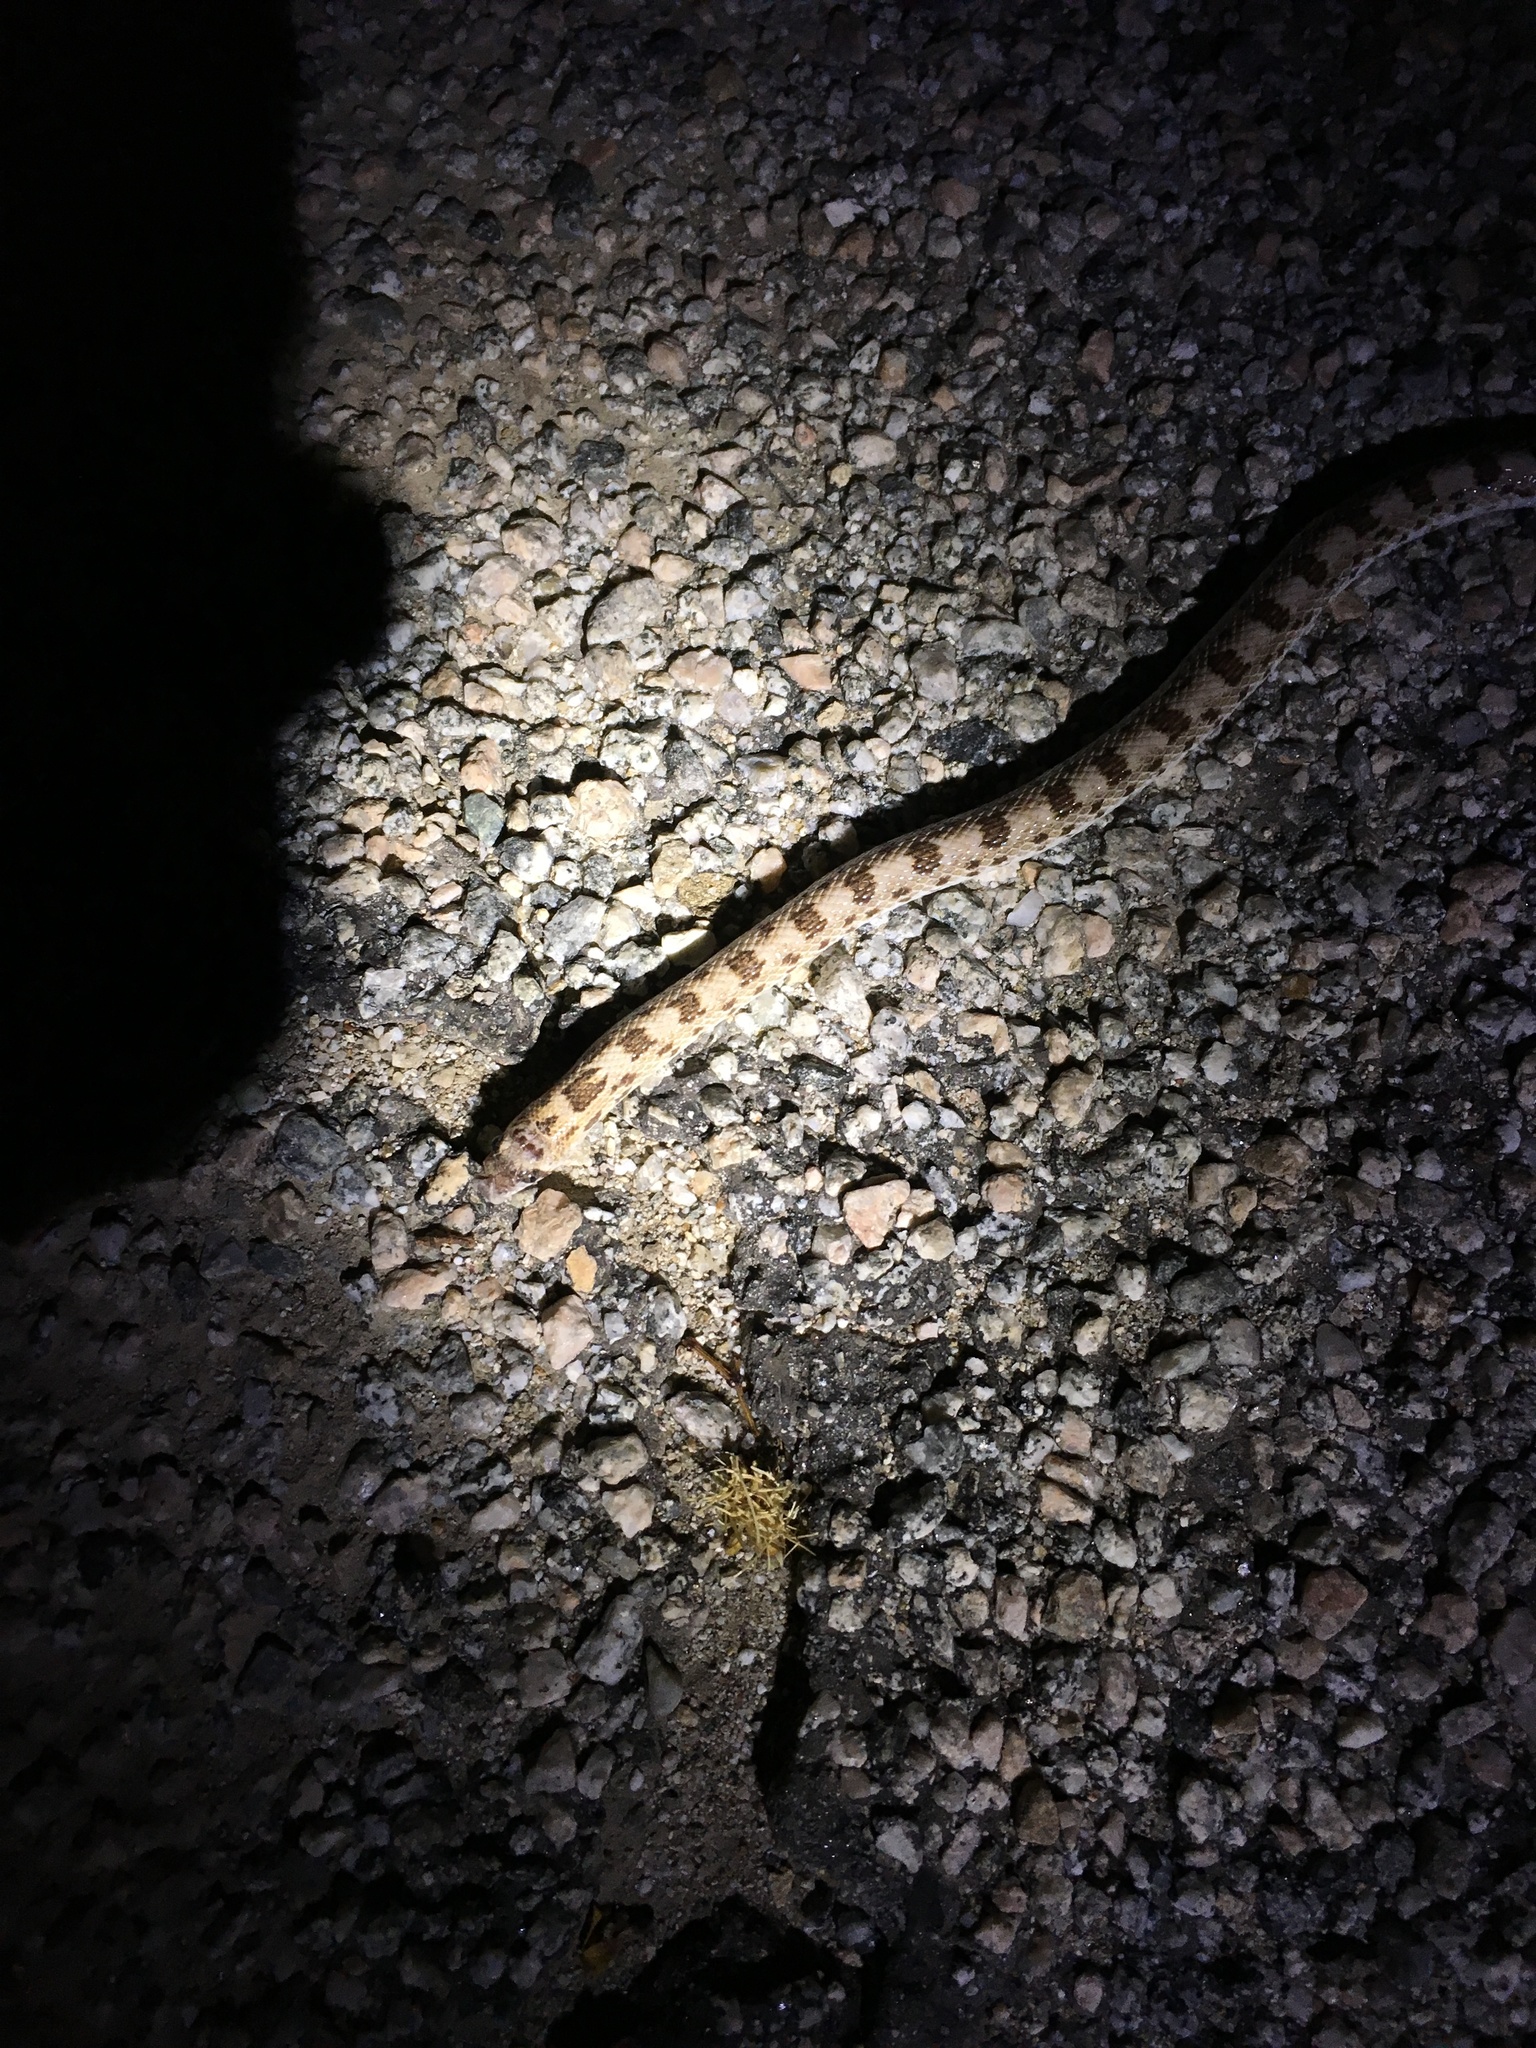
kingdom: Animalia
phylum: Chordata
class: Squamata
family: Colubridae
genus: Phyllorhynchus
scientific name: Phyllorhynchus decurtatus
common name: Spotted leafnose snake
